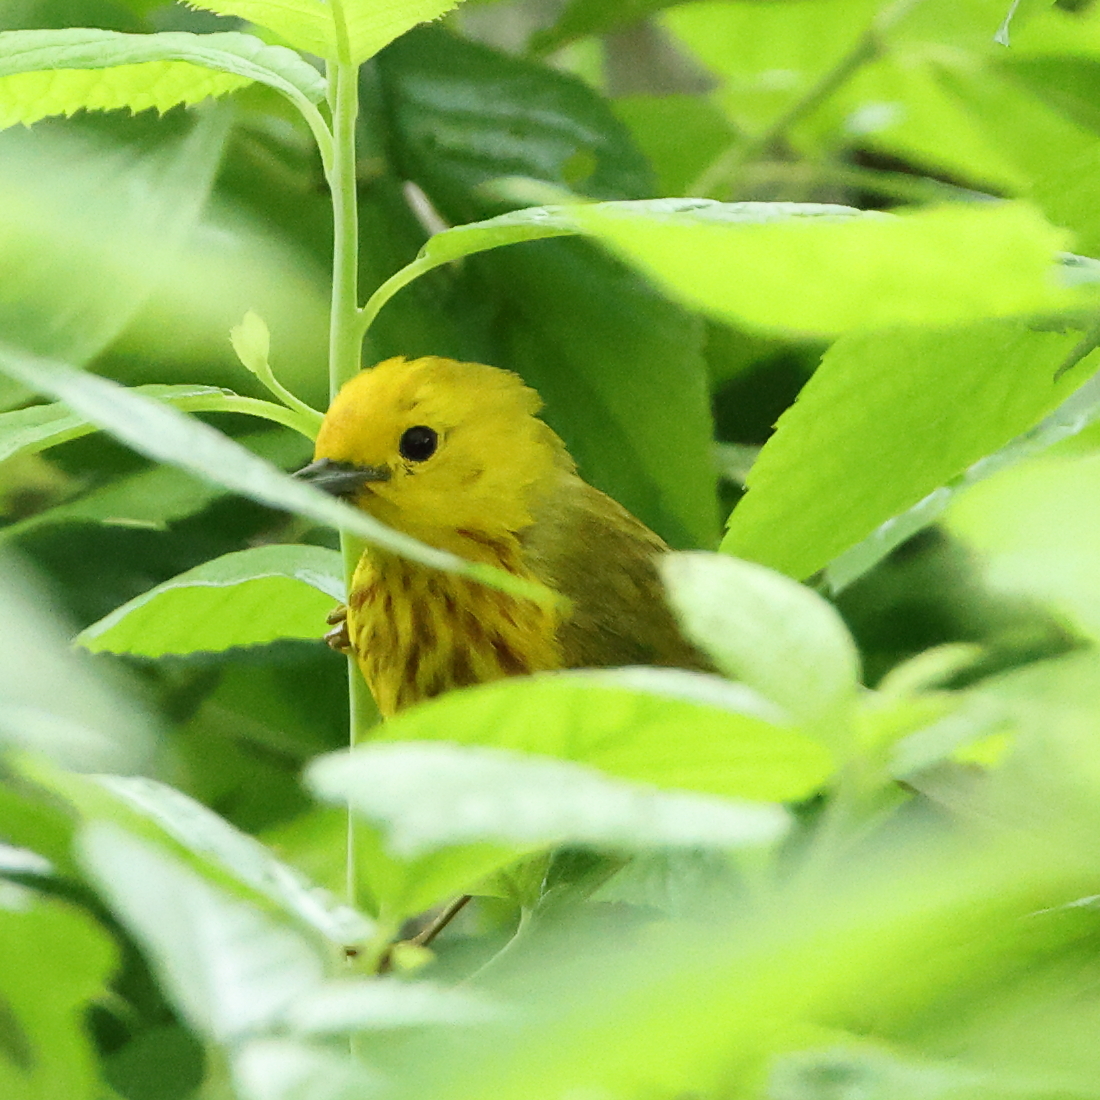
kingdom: Animalia
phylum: Chordata
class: Aves
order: Passeriformes
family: Parulidae
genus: Setophaga
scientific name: Setophaga petechia
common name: Yellow warbler
